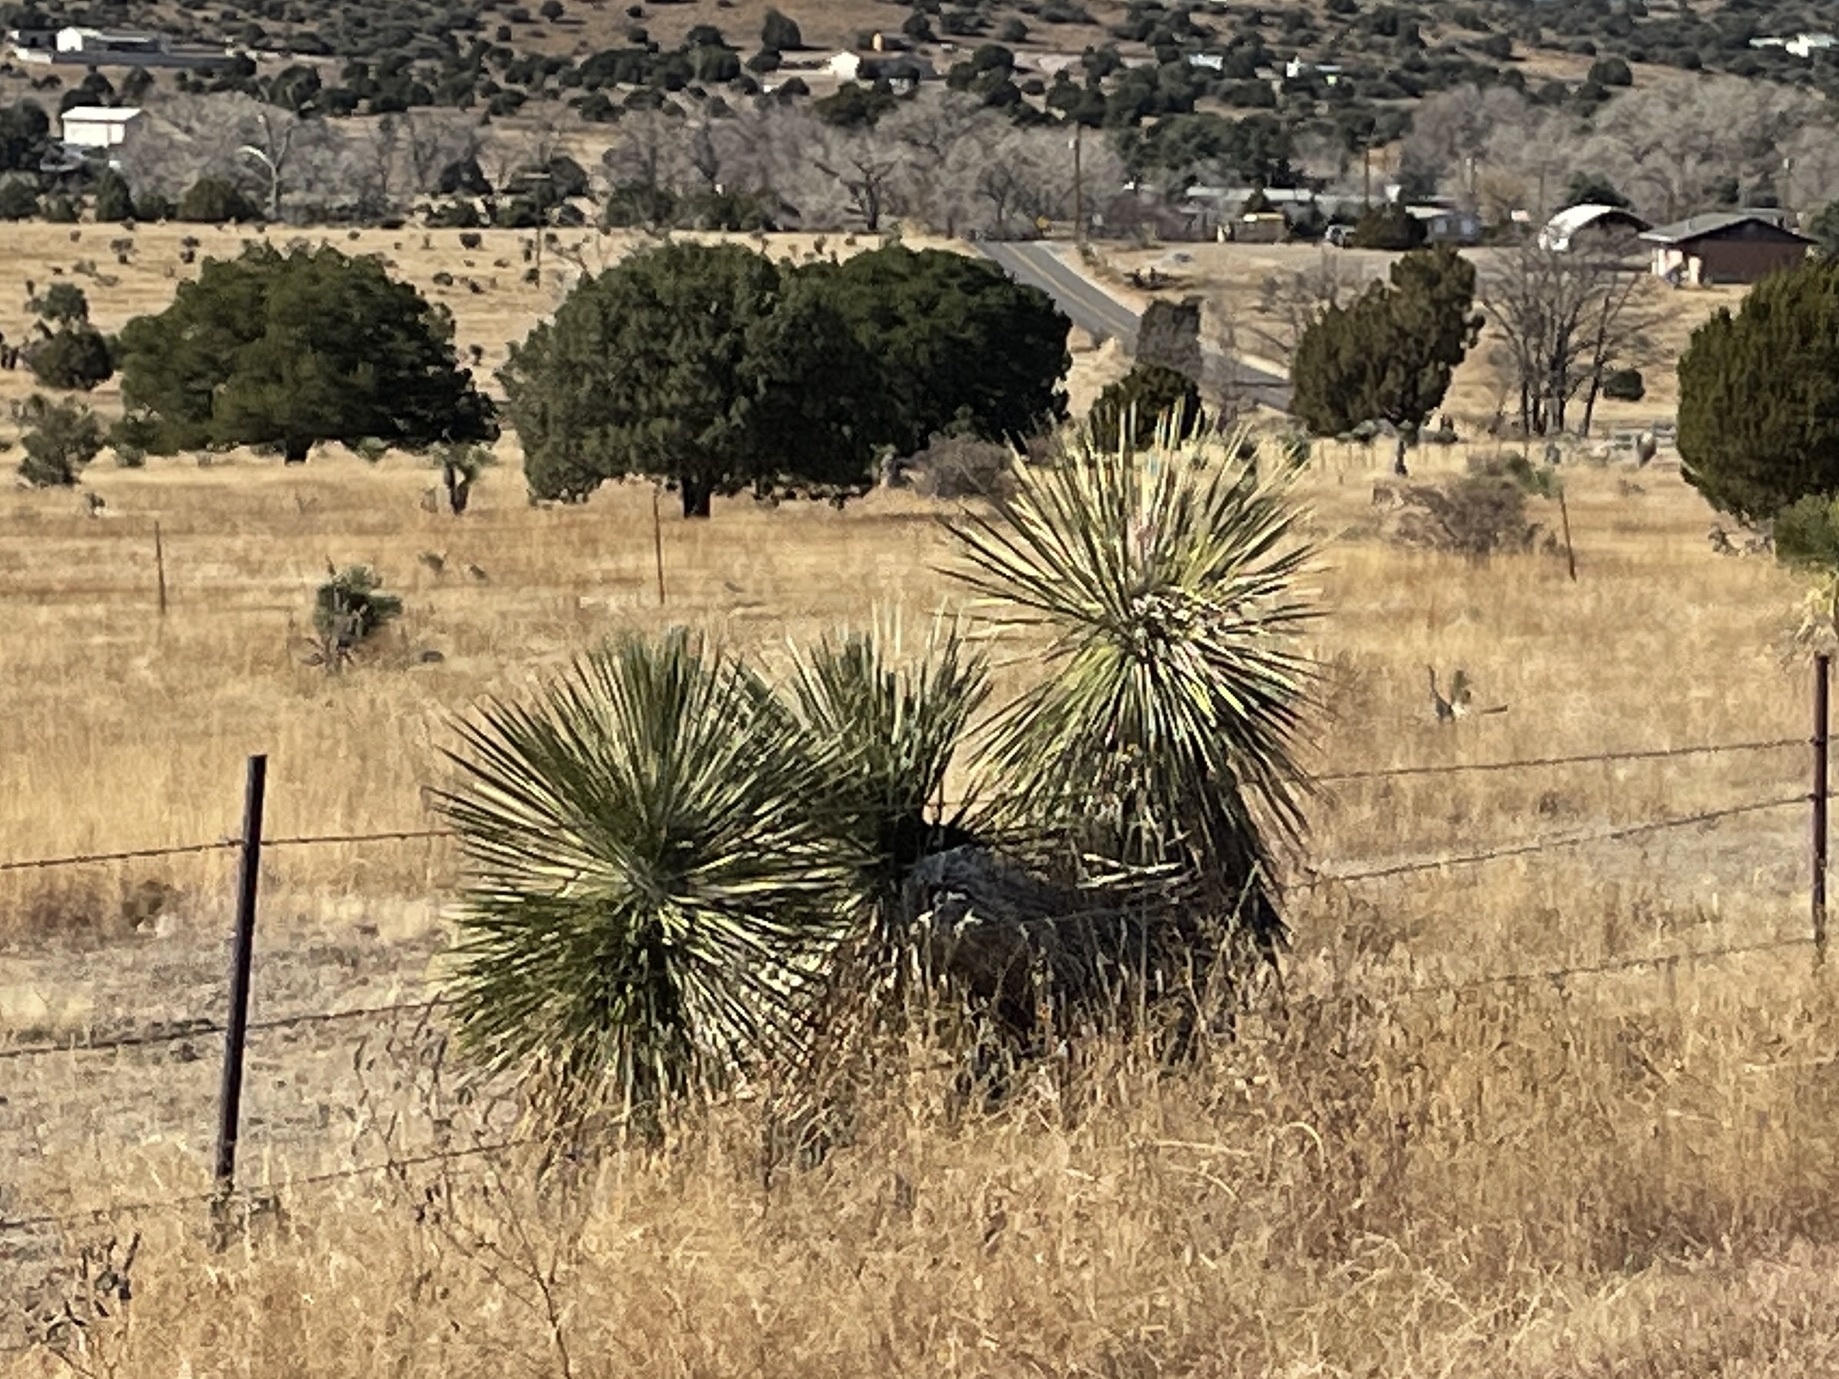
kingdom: Plantae
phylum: Tracheophyta
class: Liliopsida
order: Asparagales
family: Asparagaceae
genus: Yucca
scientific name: Yucca elata
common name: Palmella
